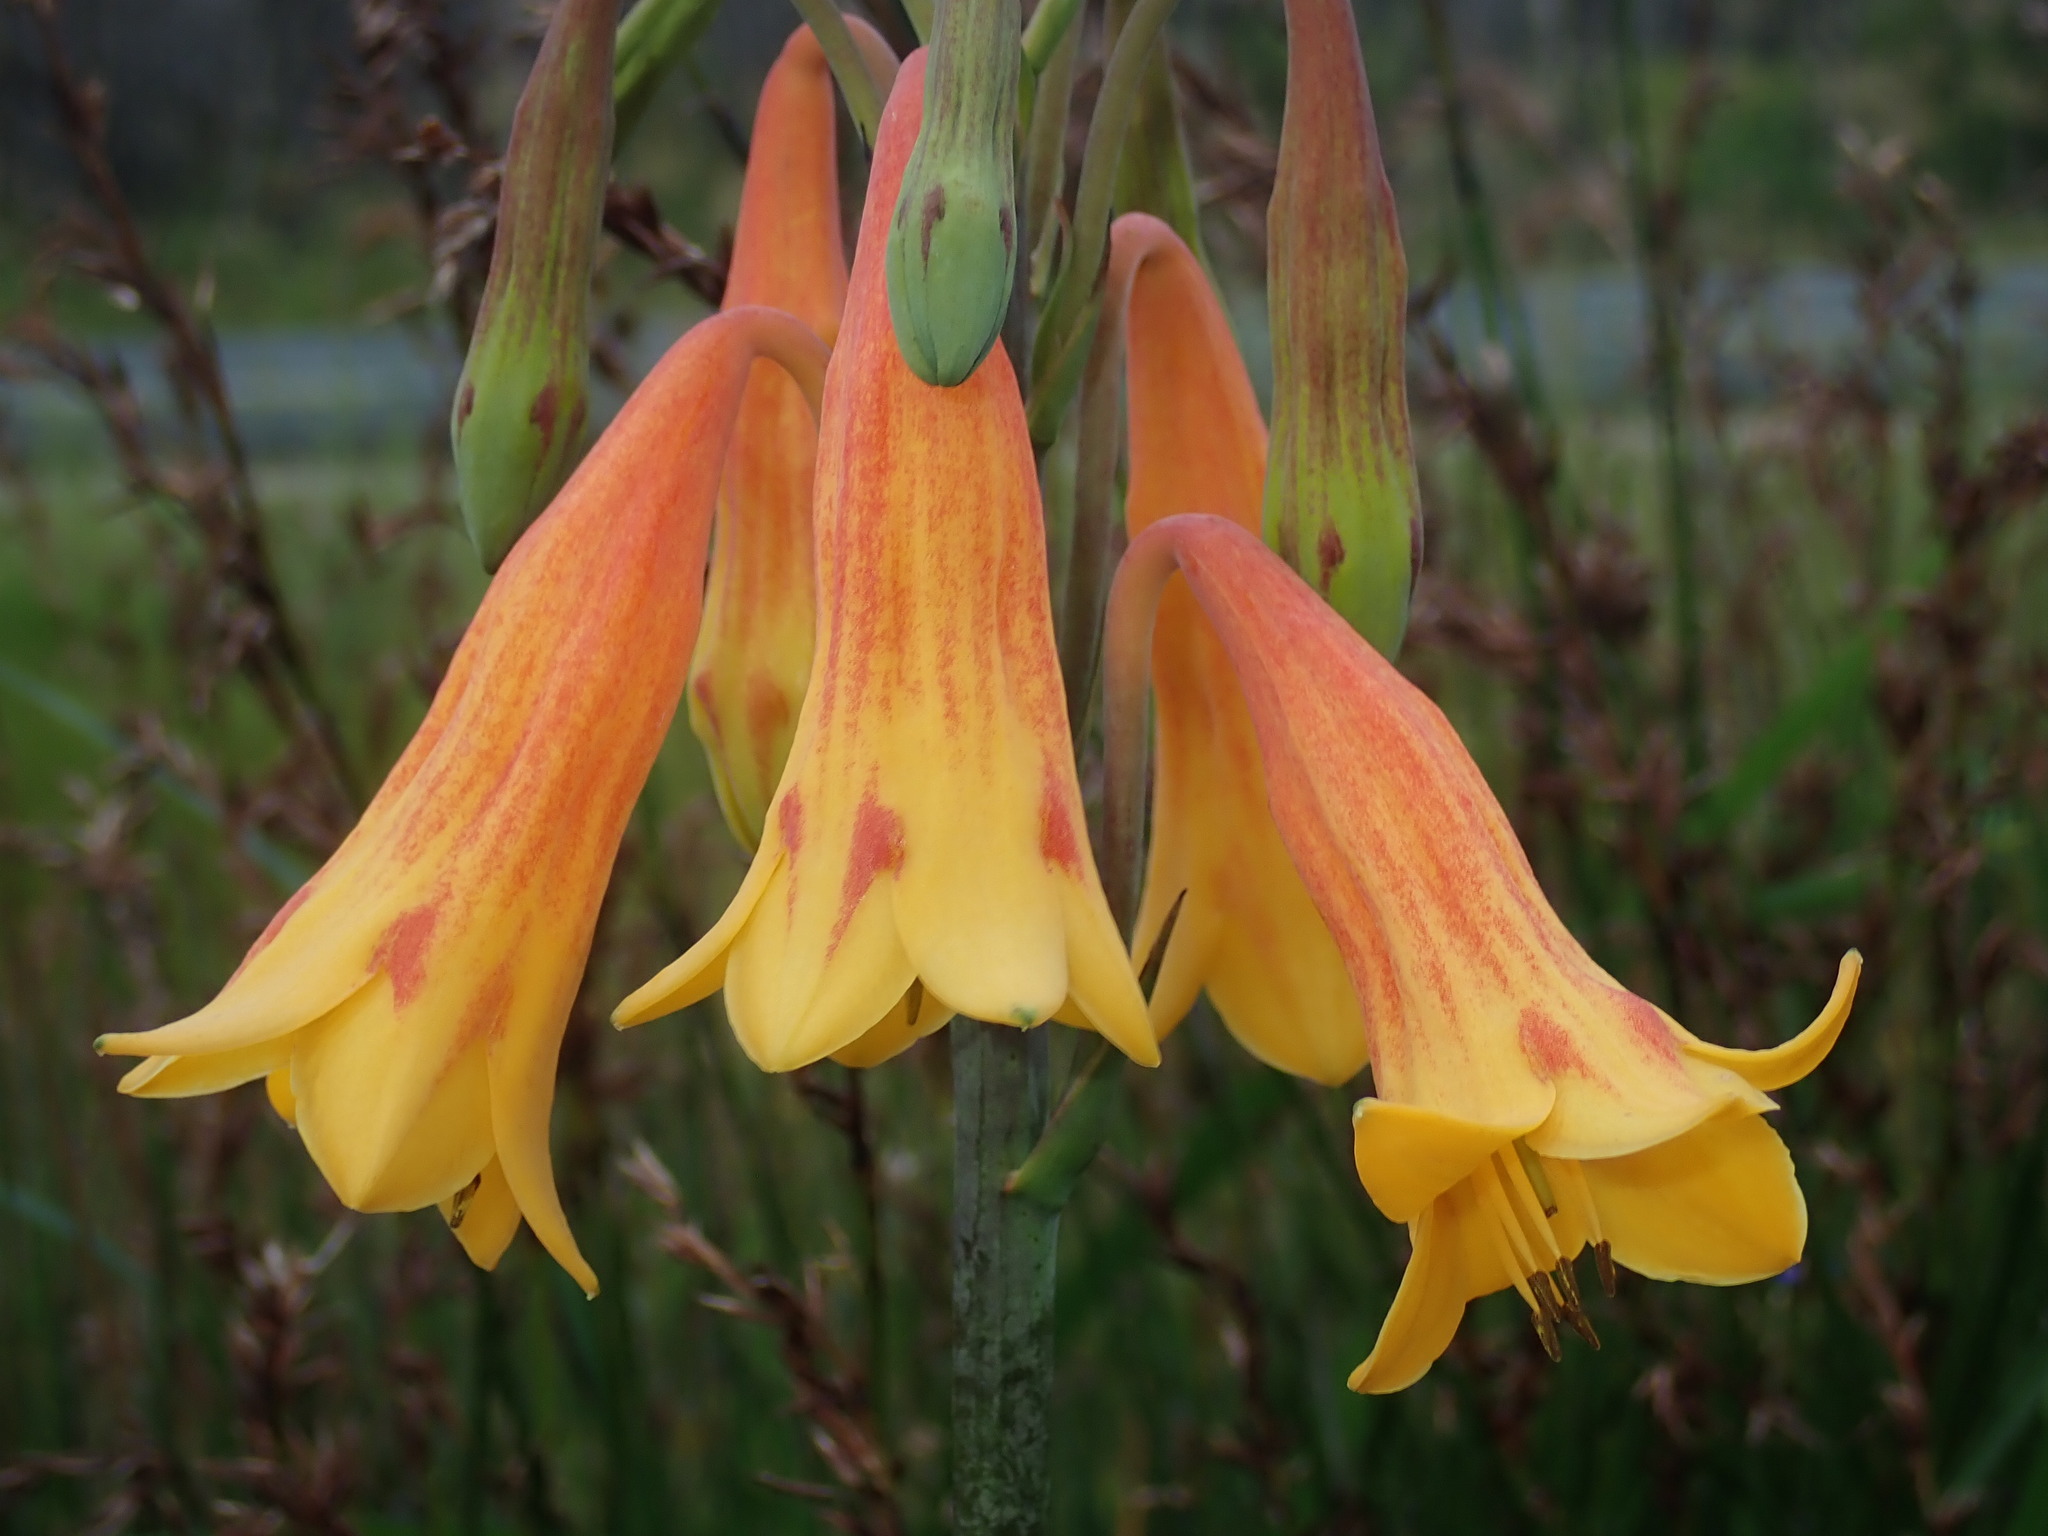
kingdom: Plantae
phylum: Tracheophyta
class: Liliopsida
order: Asparagales
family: Blandfordiaceae
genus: Blandfordia
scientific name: Blandfordia grandiflora
